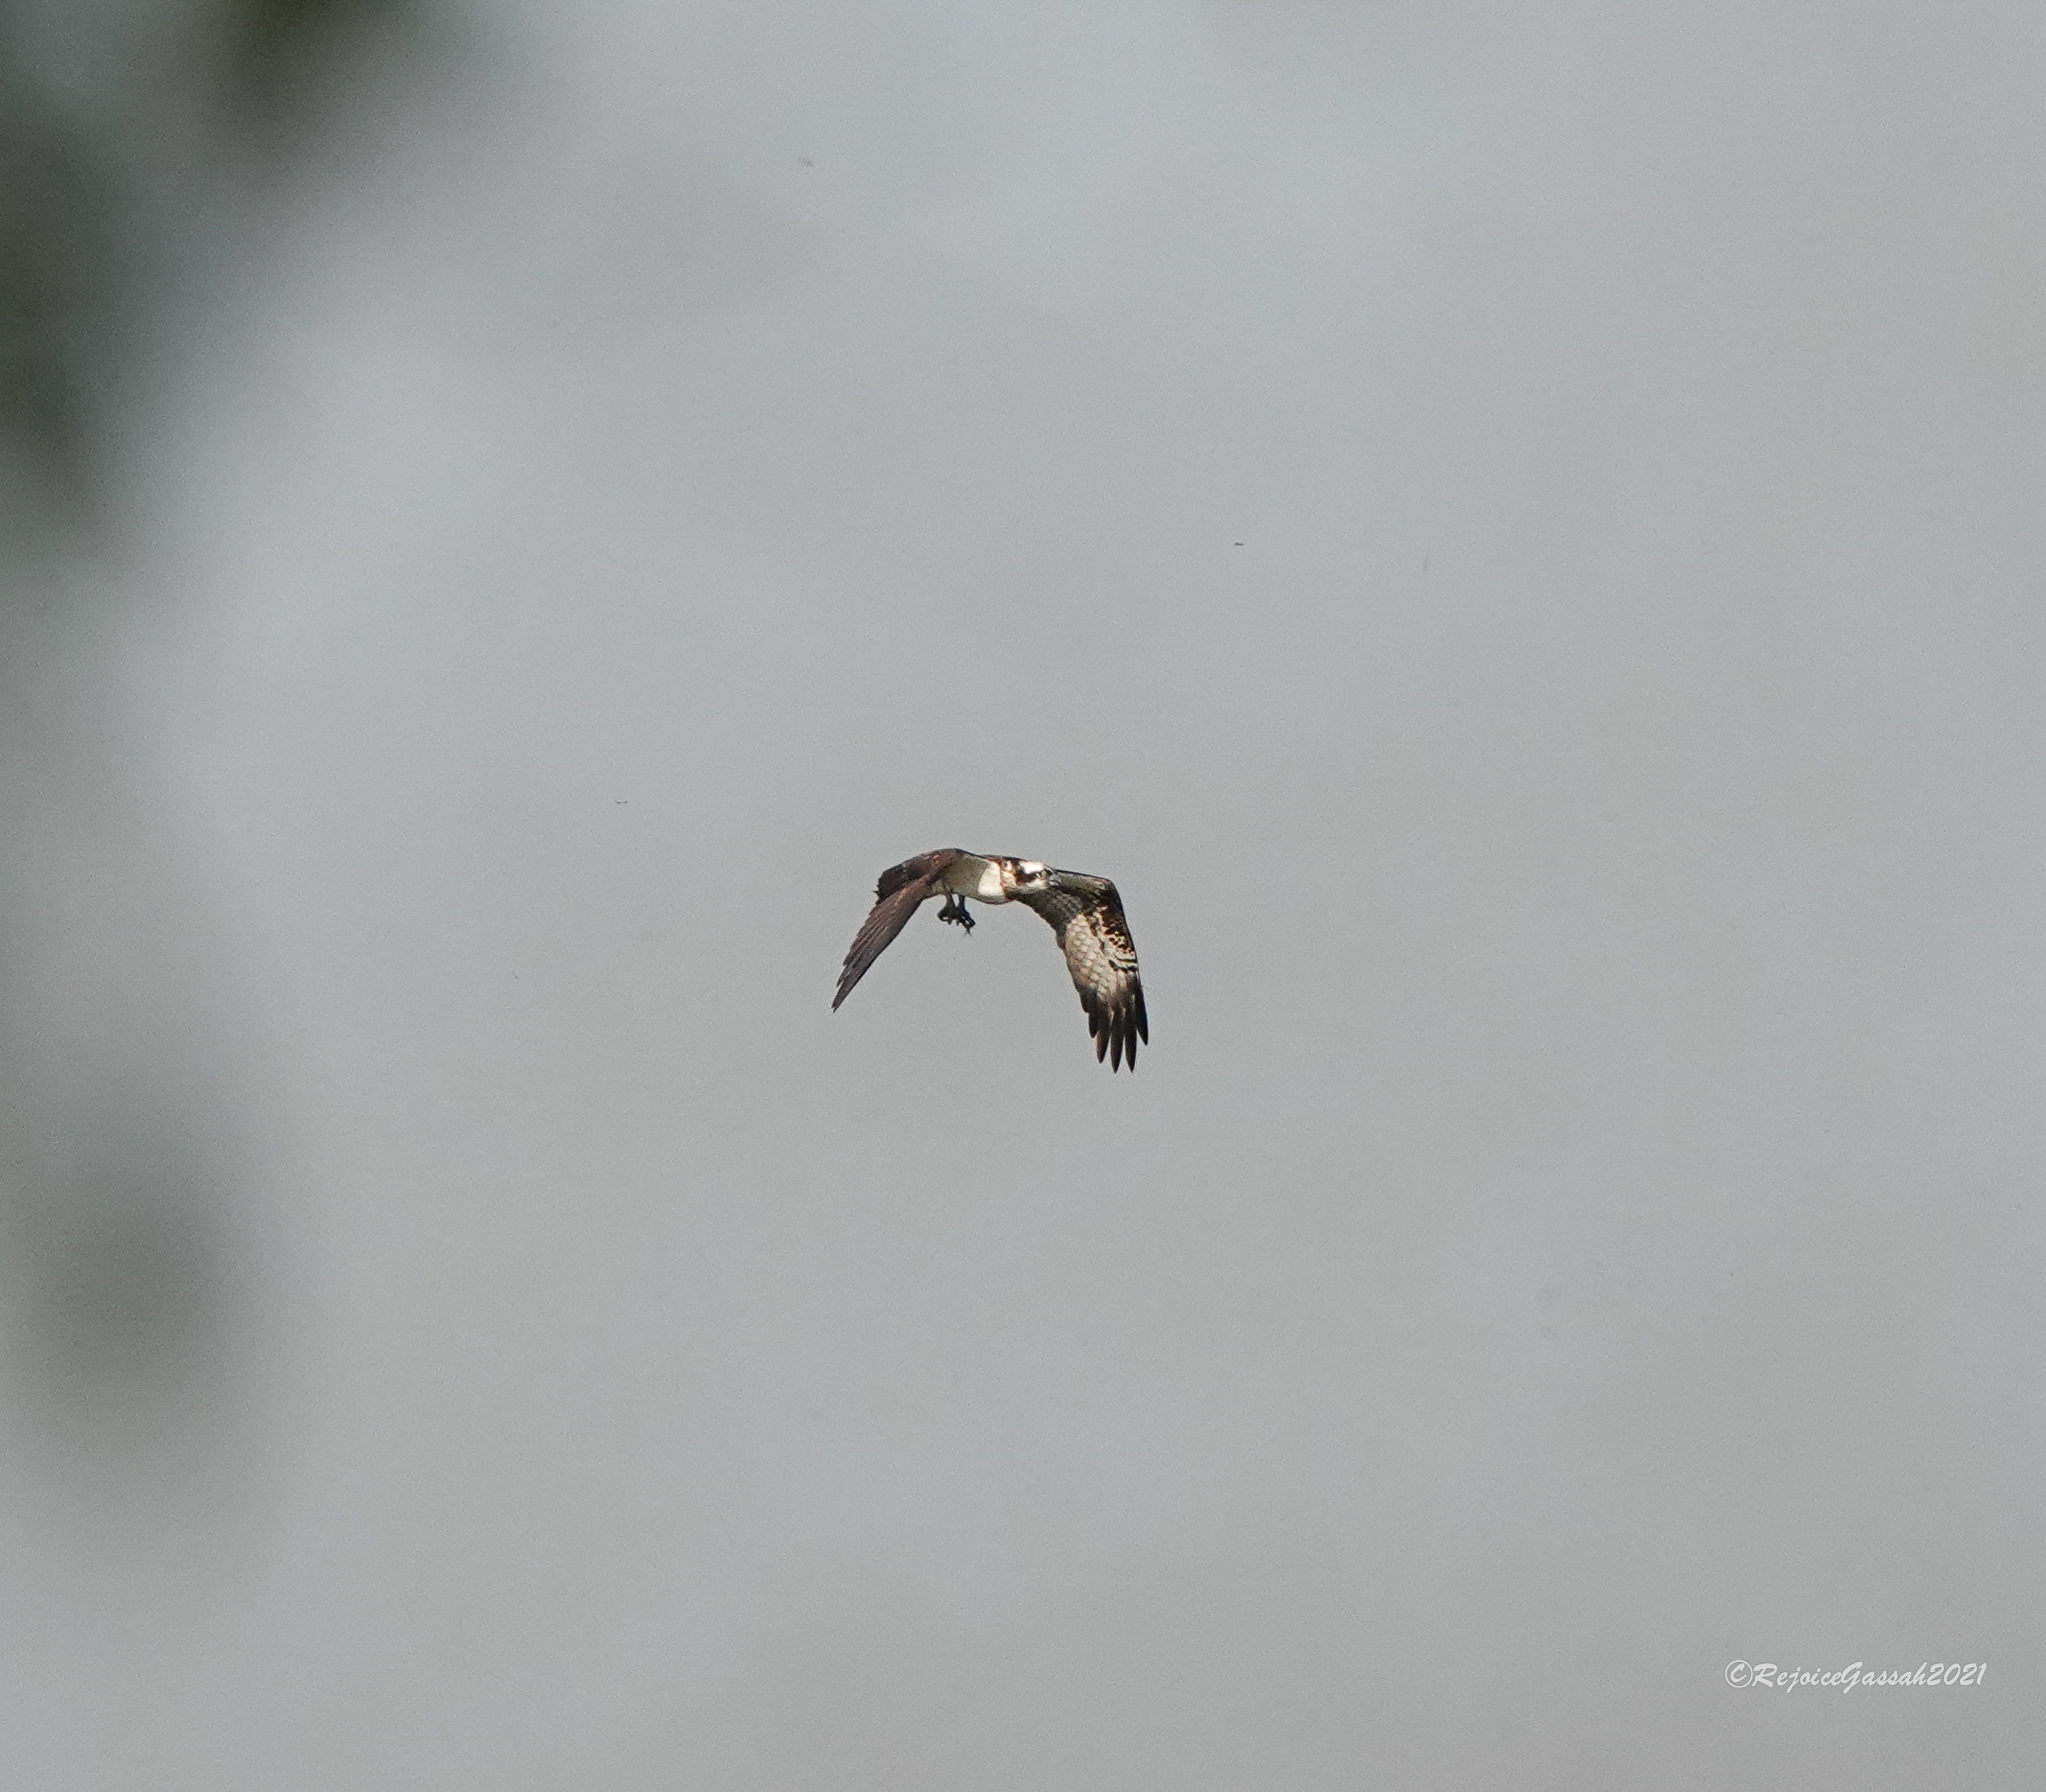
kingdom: Animalia
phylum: Chordata
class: Aves
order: Accipitriformes
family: Pandionidae
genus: Pandion
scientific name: Pandion haliaetus
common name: Osprey
